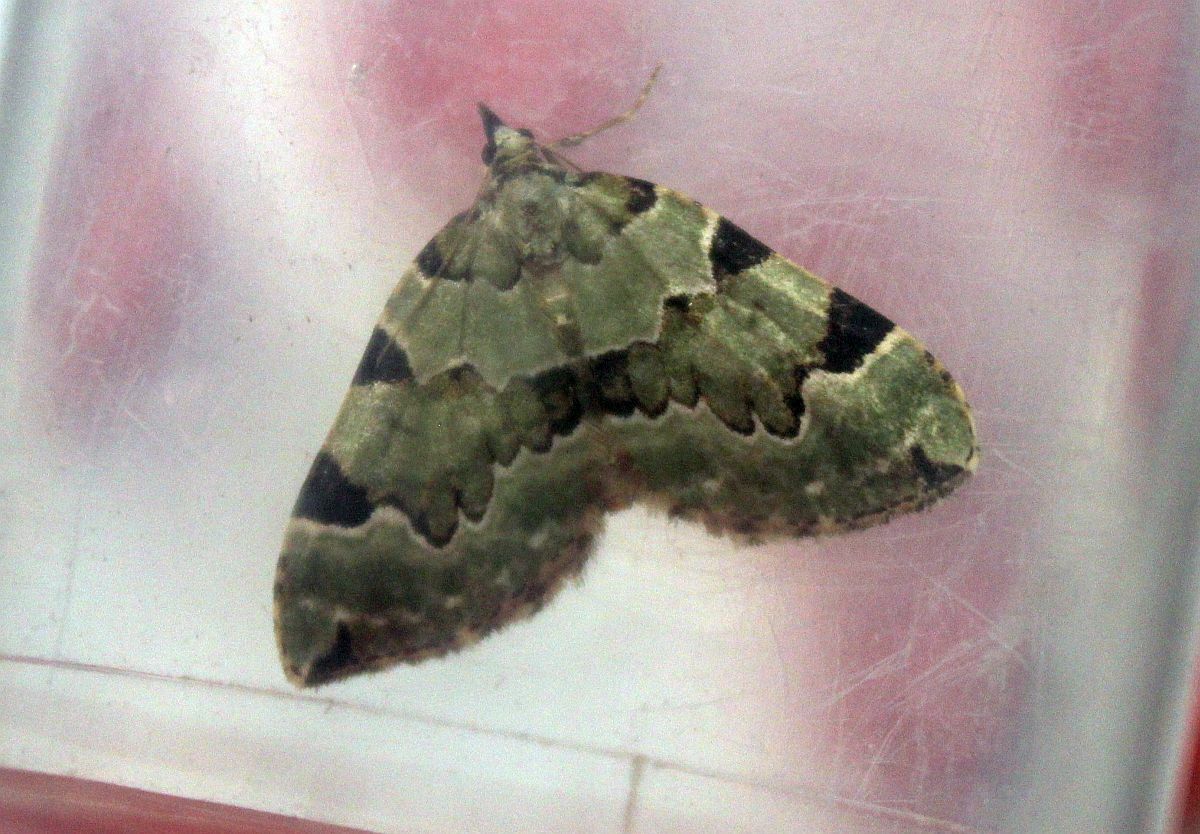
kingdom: Animalia
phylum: Arthropoda
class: Insecta
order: Lepidoptera
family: Geometridae
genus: Colostygia
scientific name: Colostygia pectinataria
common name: Green carpet
